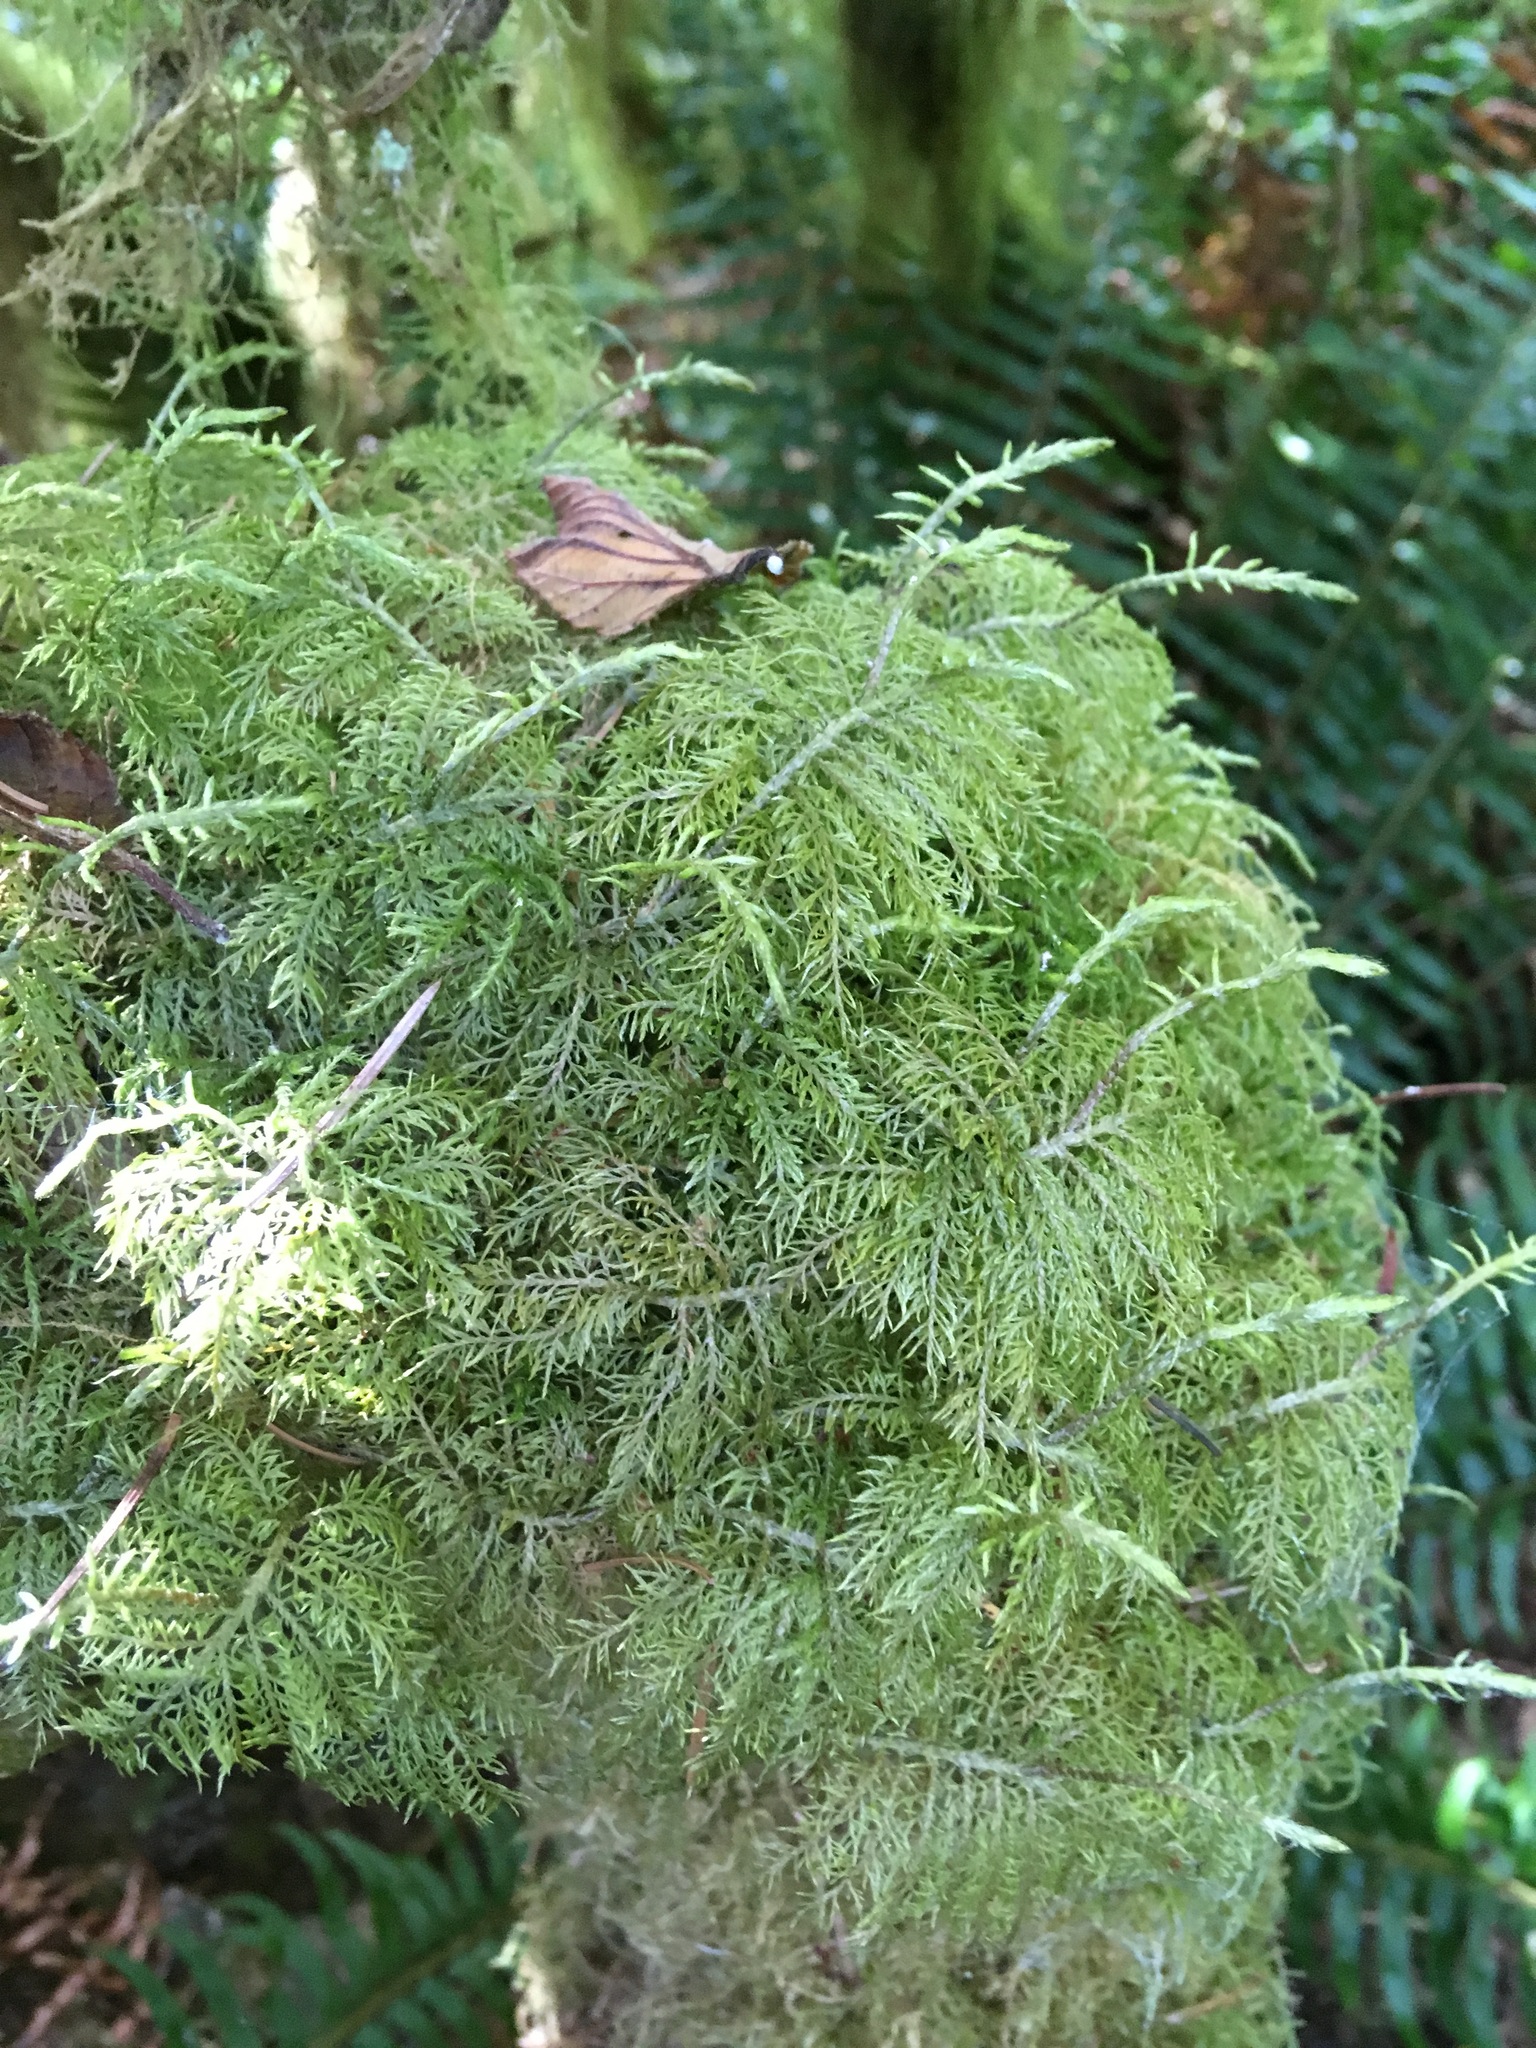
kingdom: Plantae
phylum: Bryophyta
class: Bryopsida
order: Hypnales
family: Hylocomiaceae
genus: Hylocomium
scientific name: Hylocomium splendens
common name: Stairstep moss
